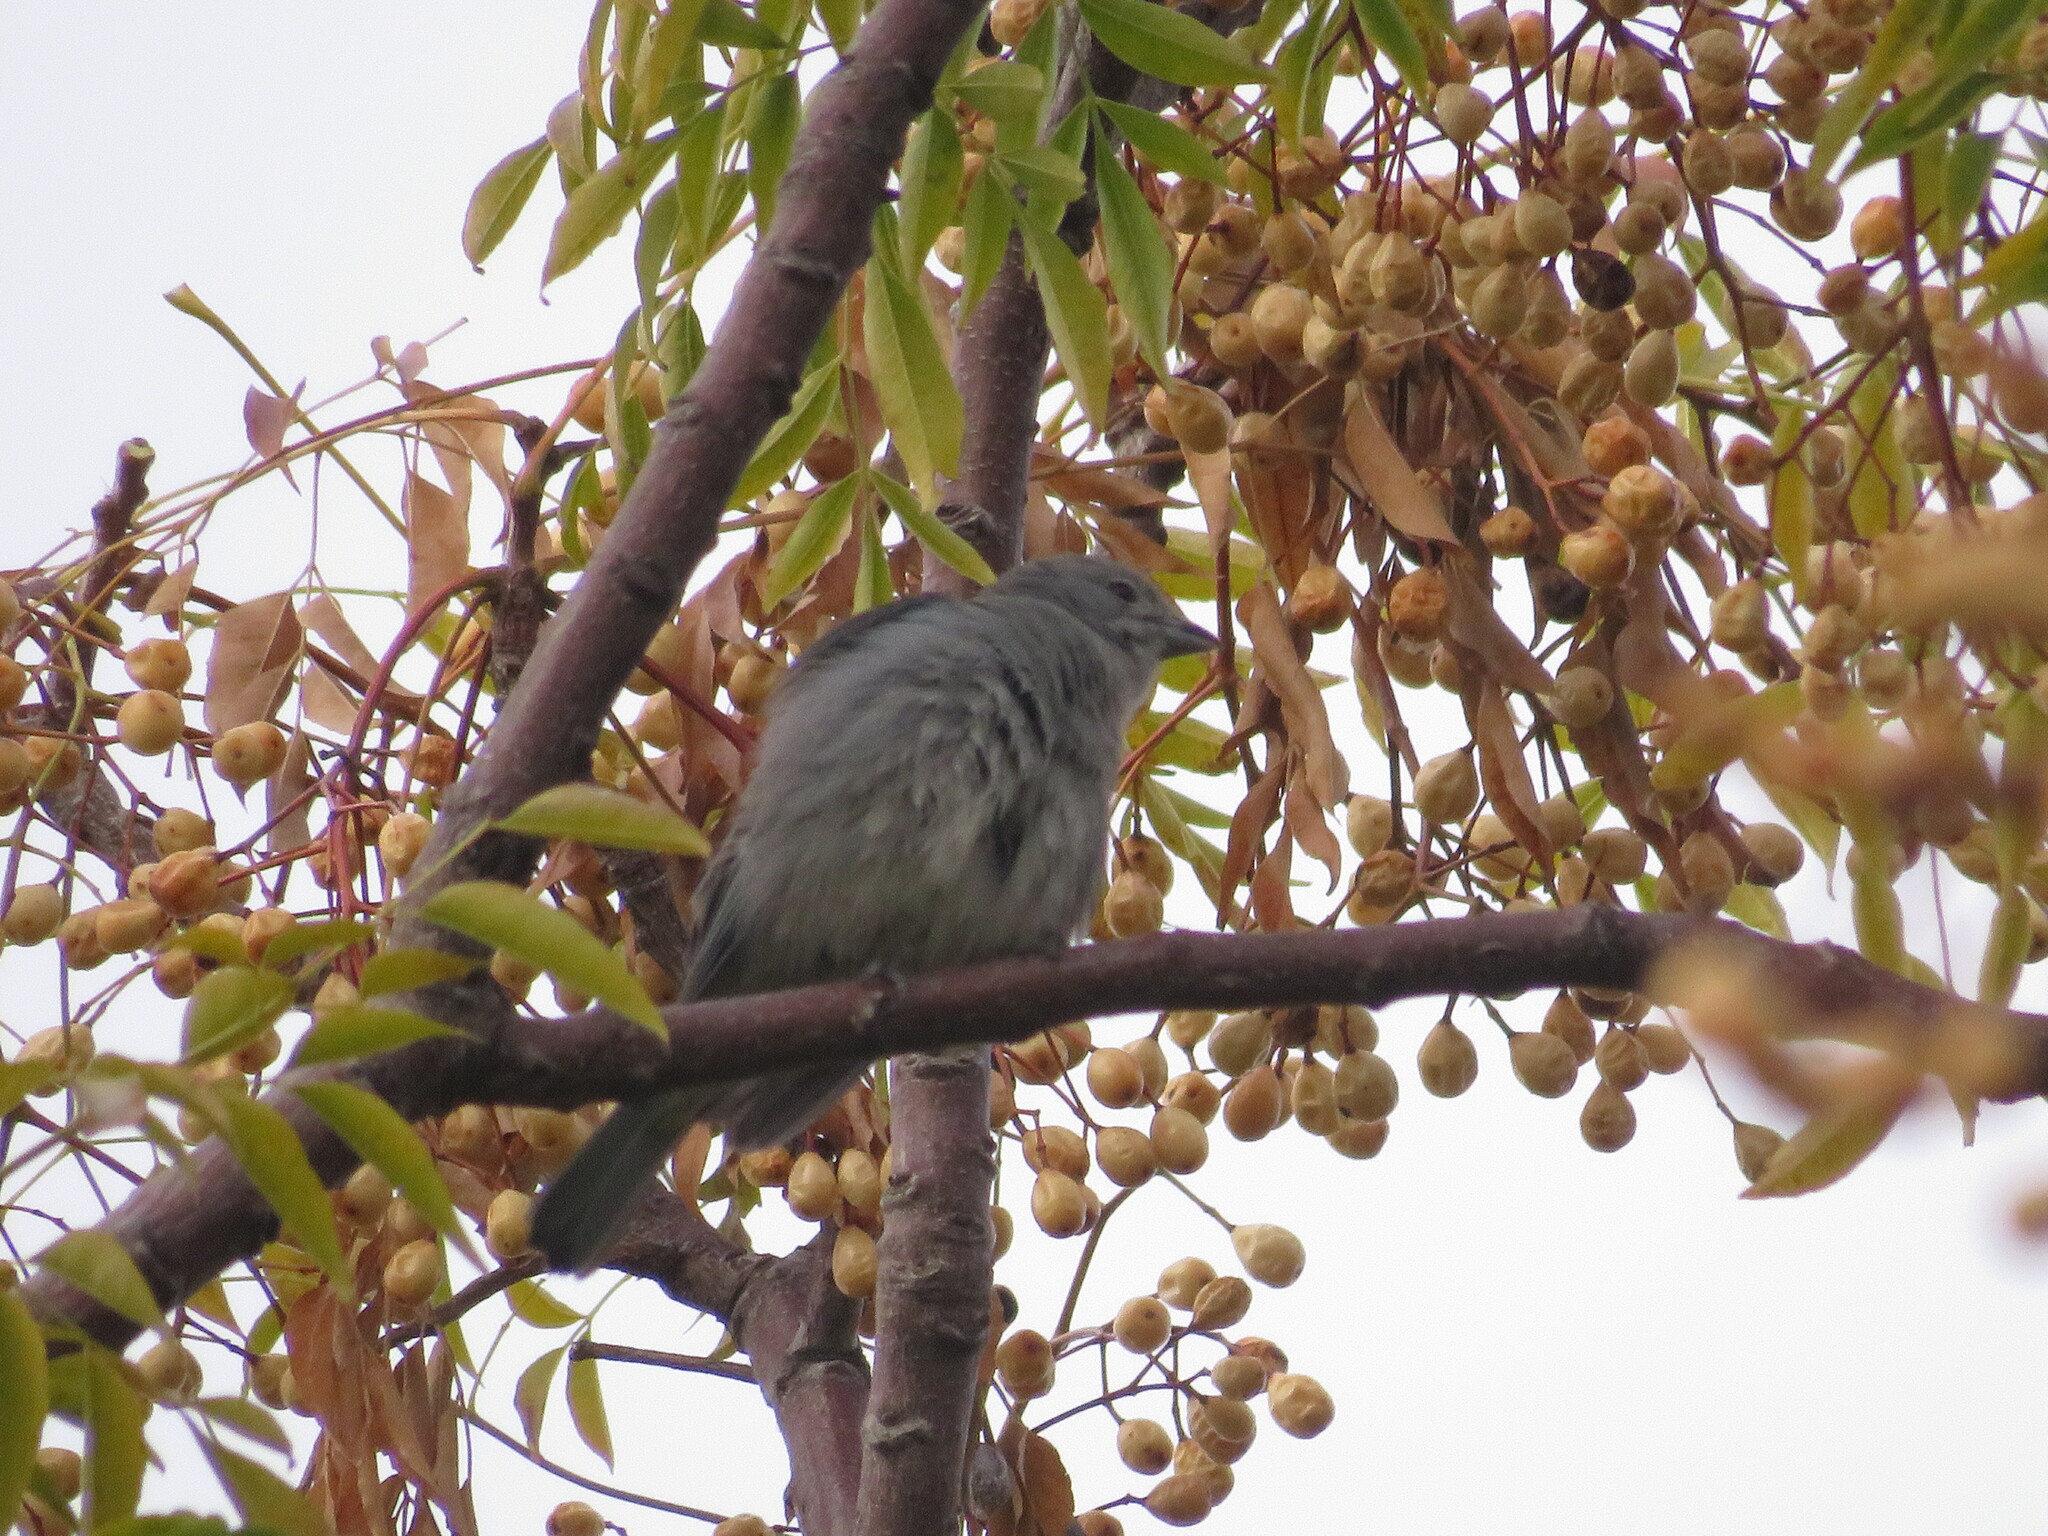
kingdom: Animalia
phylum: Chordata
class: Aves
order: Passeriformes
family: Thraupidae
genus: Thraupis
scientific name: Thraupis sayaca
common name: Sayaca tanager
